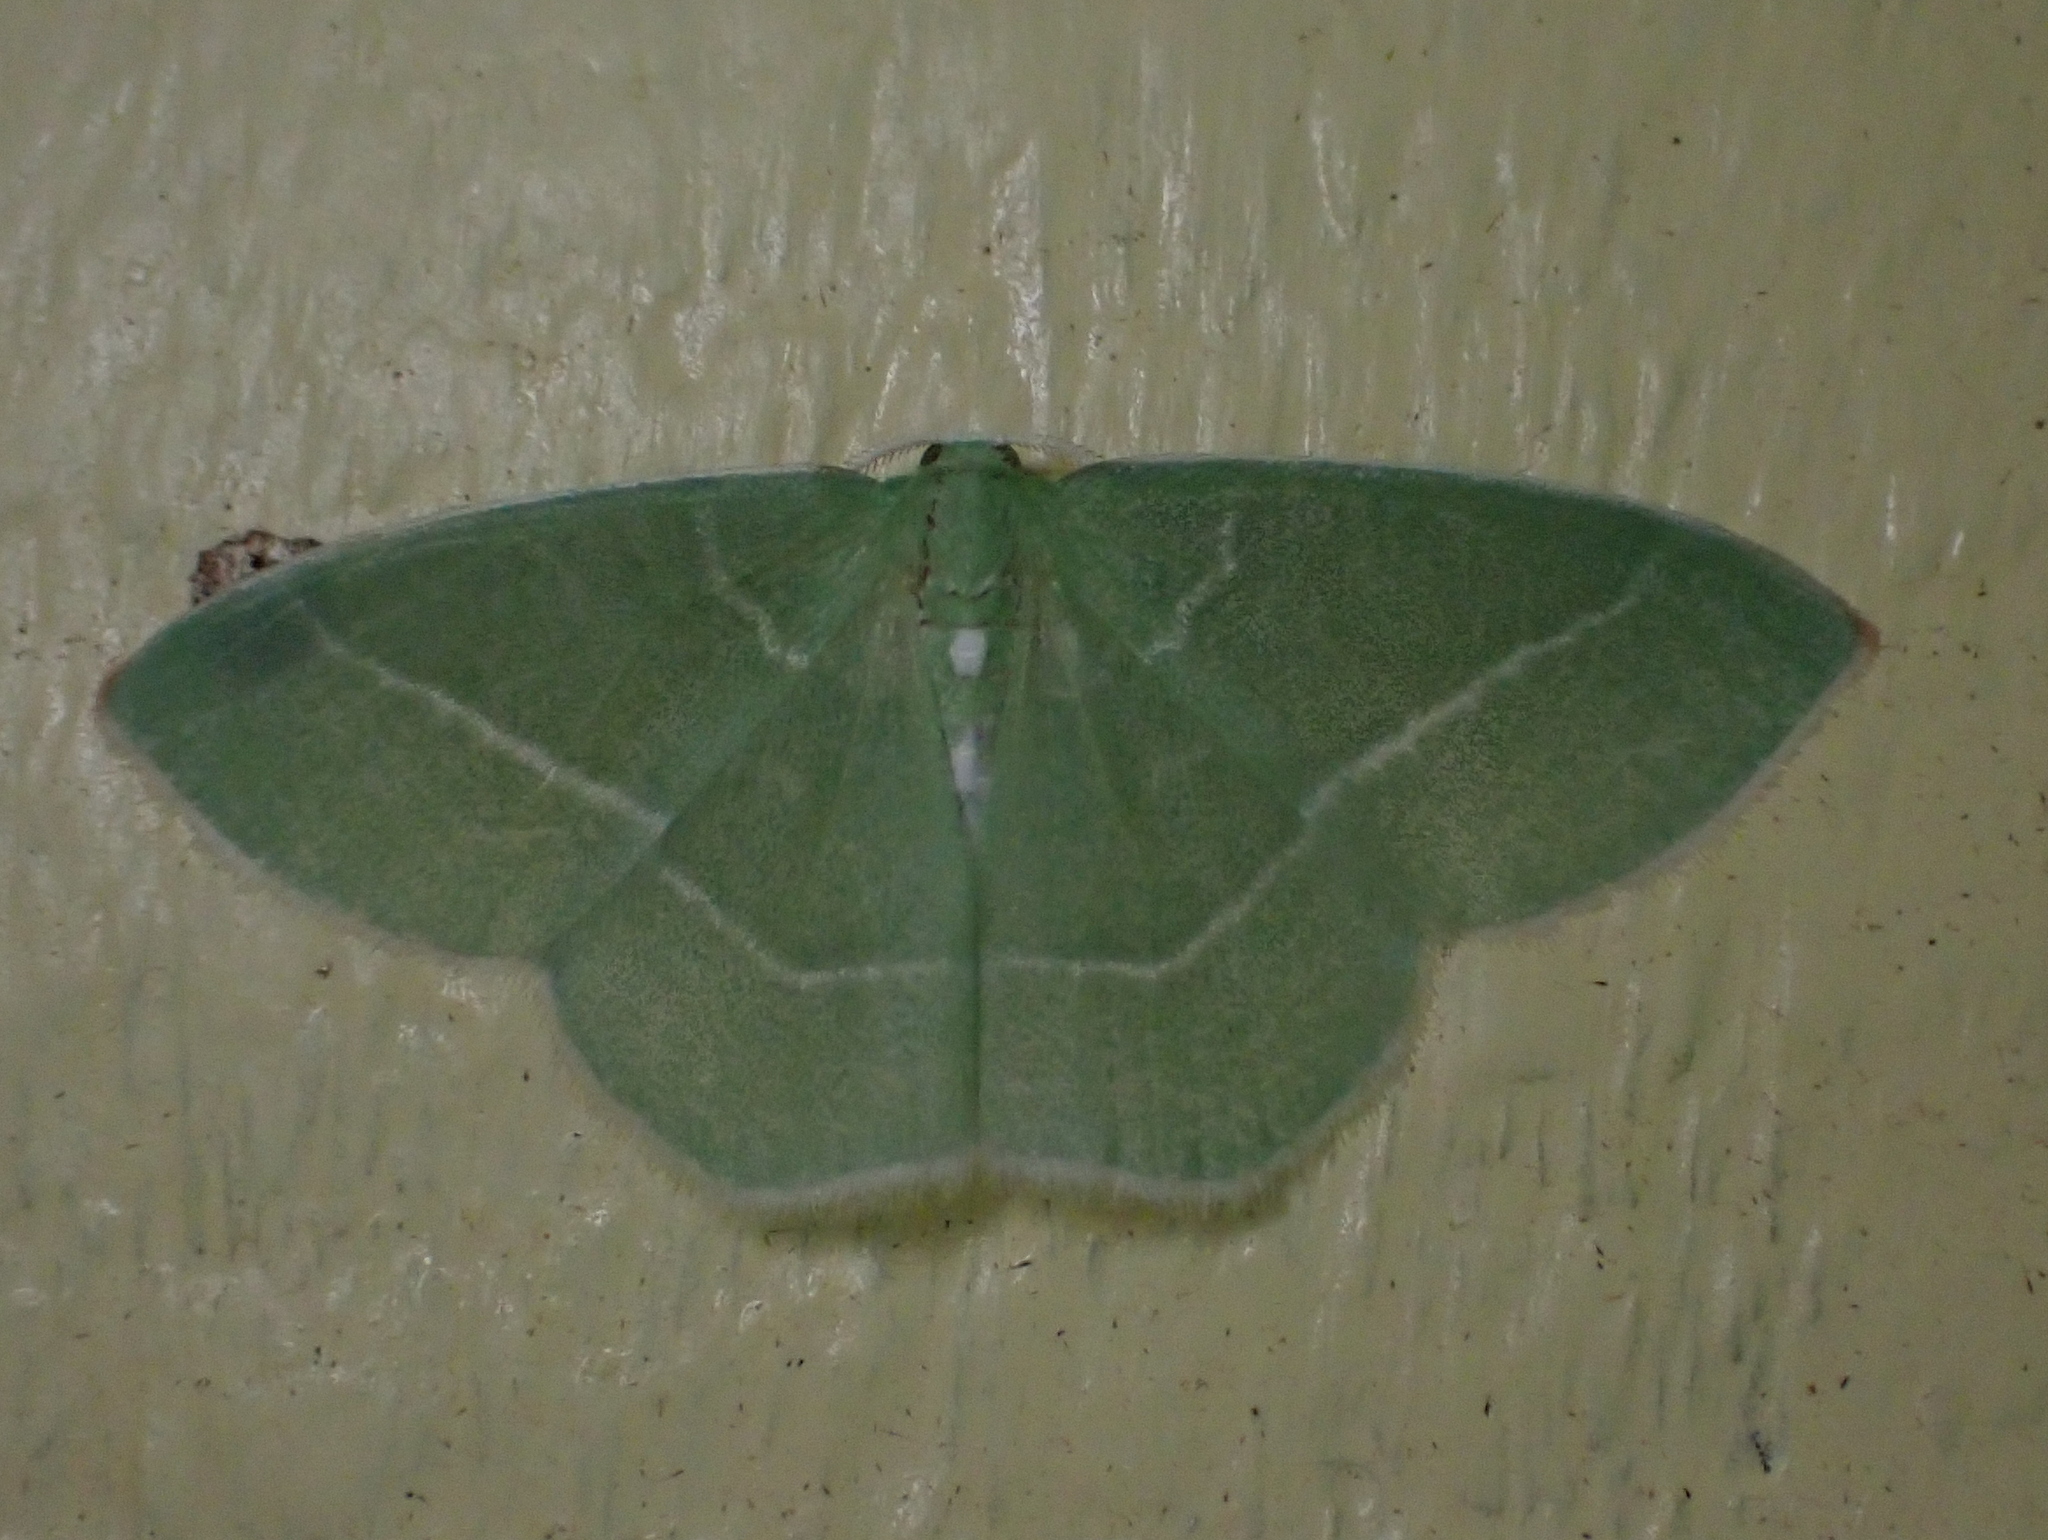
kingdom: Animalia
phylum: Arthropoda
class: Insecta
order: Lepidoptera
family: Geometridae
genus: Nemoria
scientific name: Nemoria mimosaria
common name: White-fringed emerald
